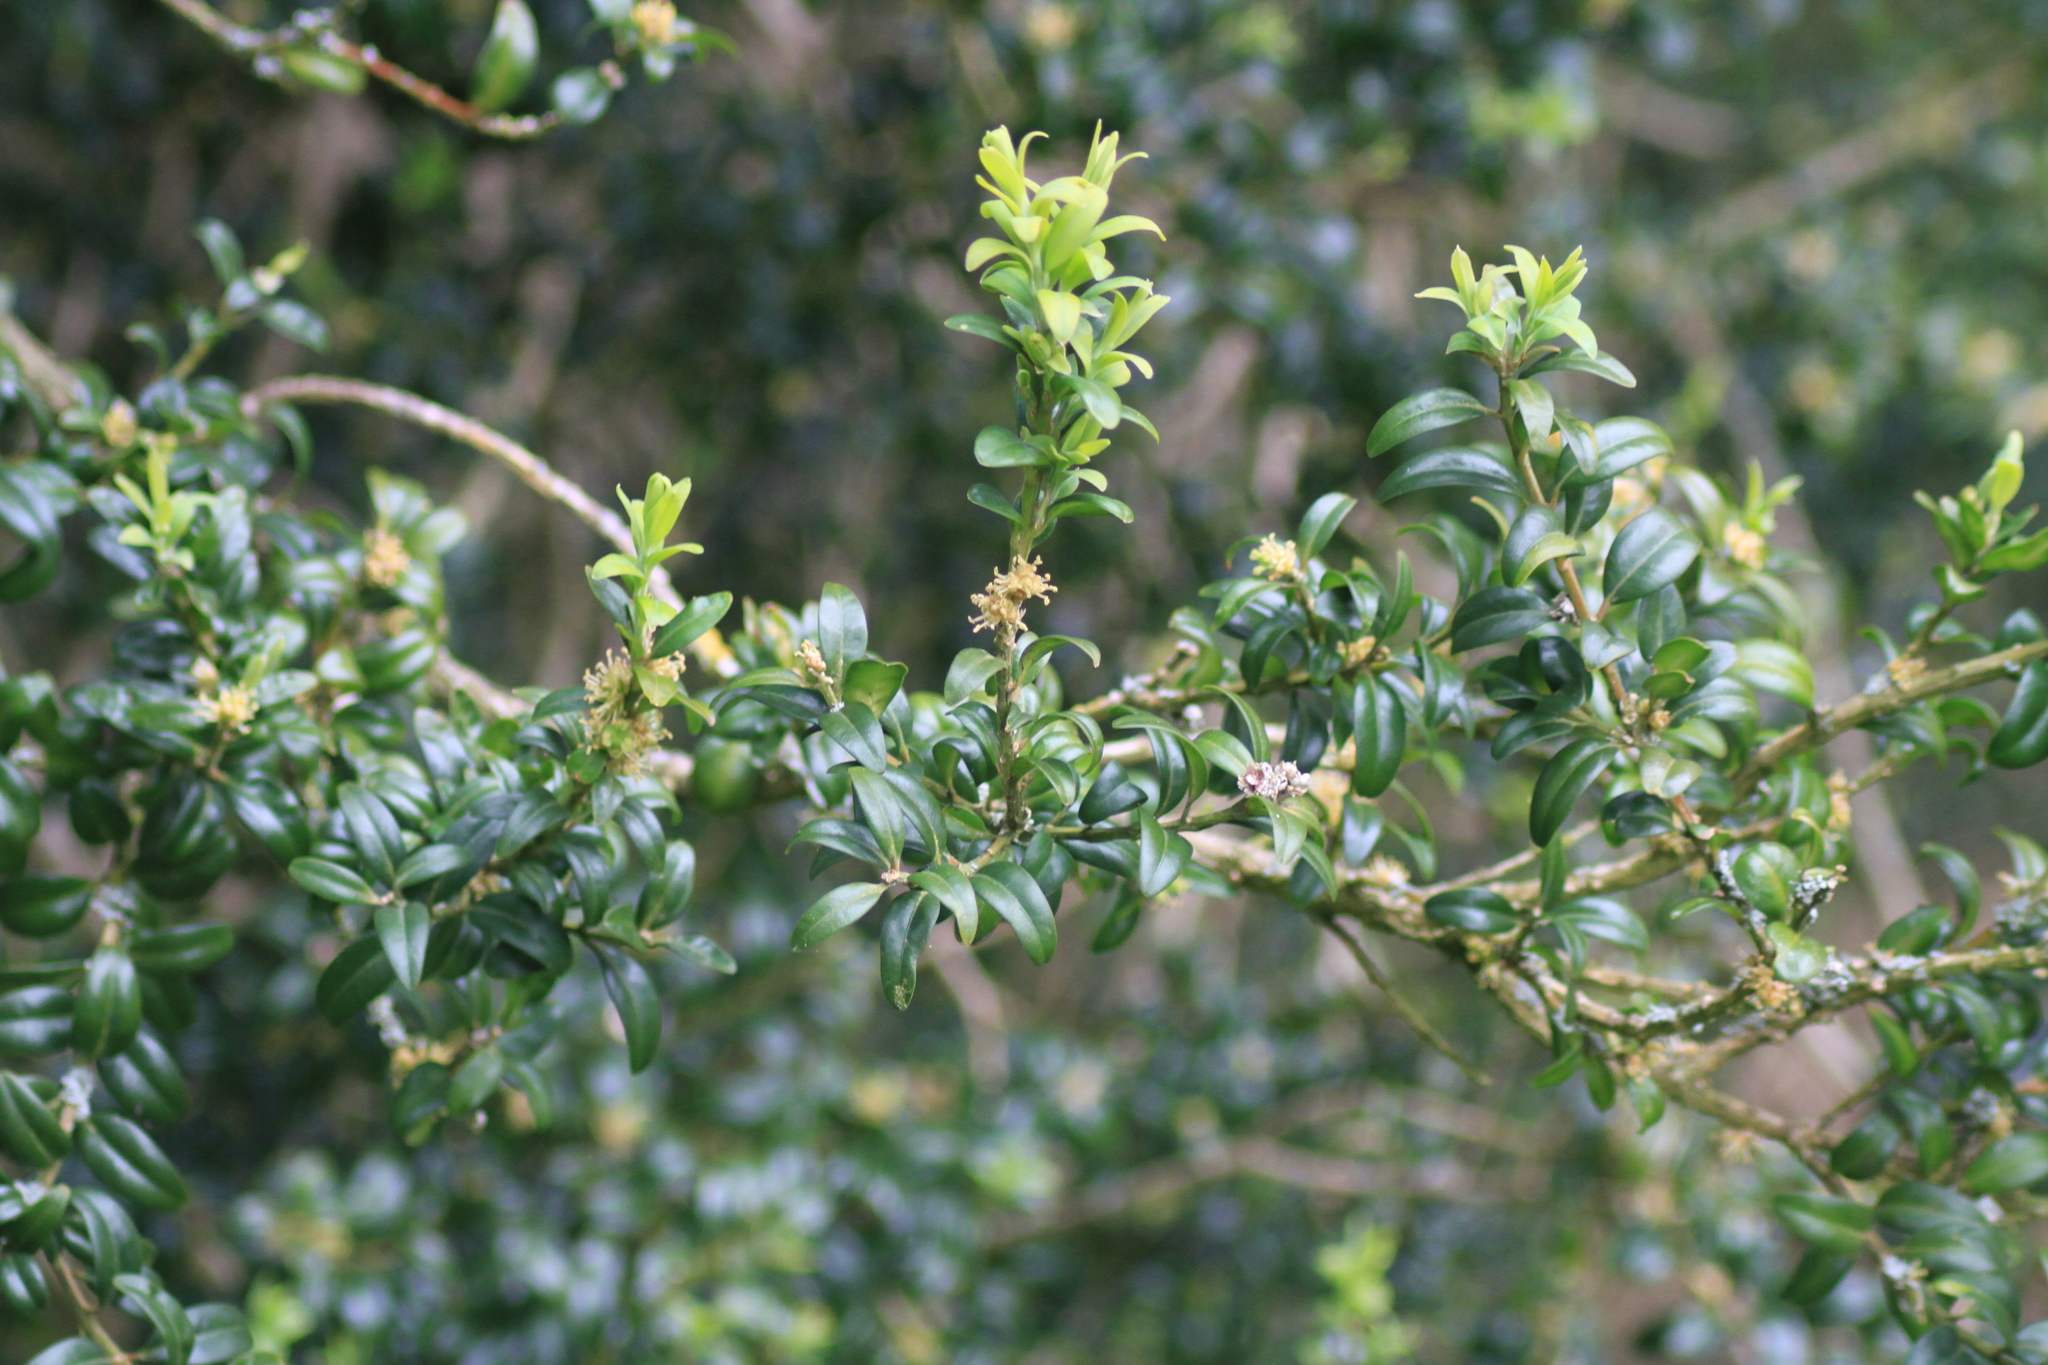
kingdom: Plantae
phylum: Tracheophyta
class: Magnoliopsida
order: Buxales
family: Buxaceae
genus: Buxus
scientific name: Buxus sempervirens
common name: Box
